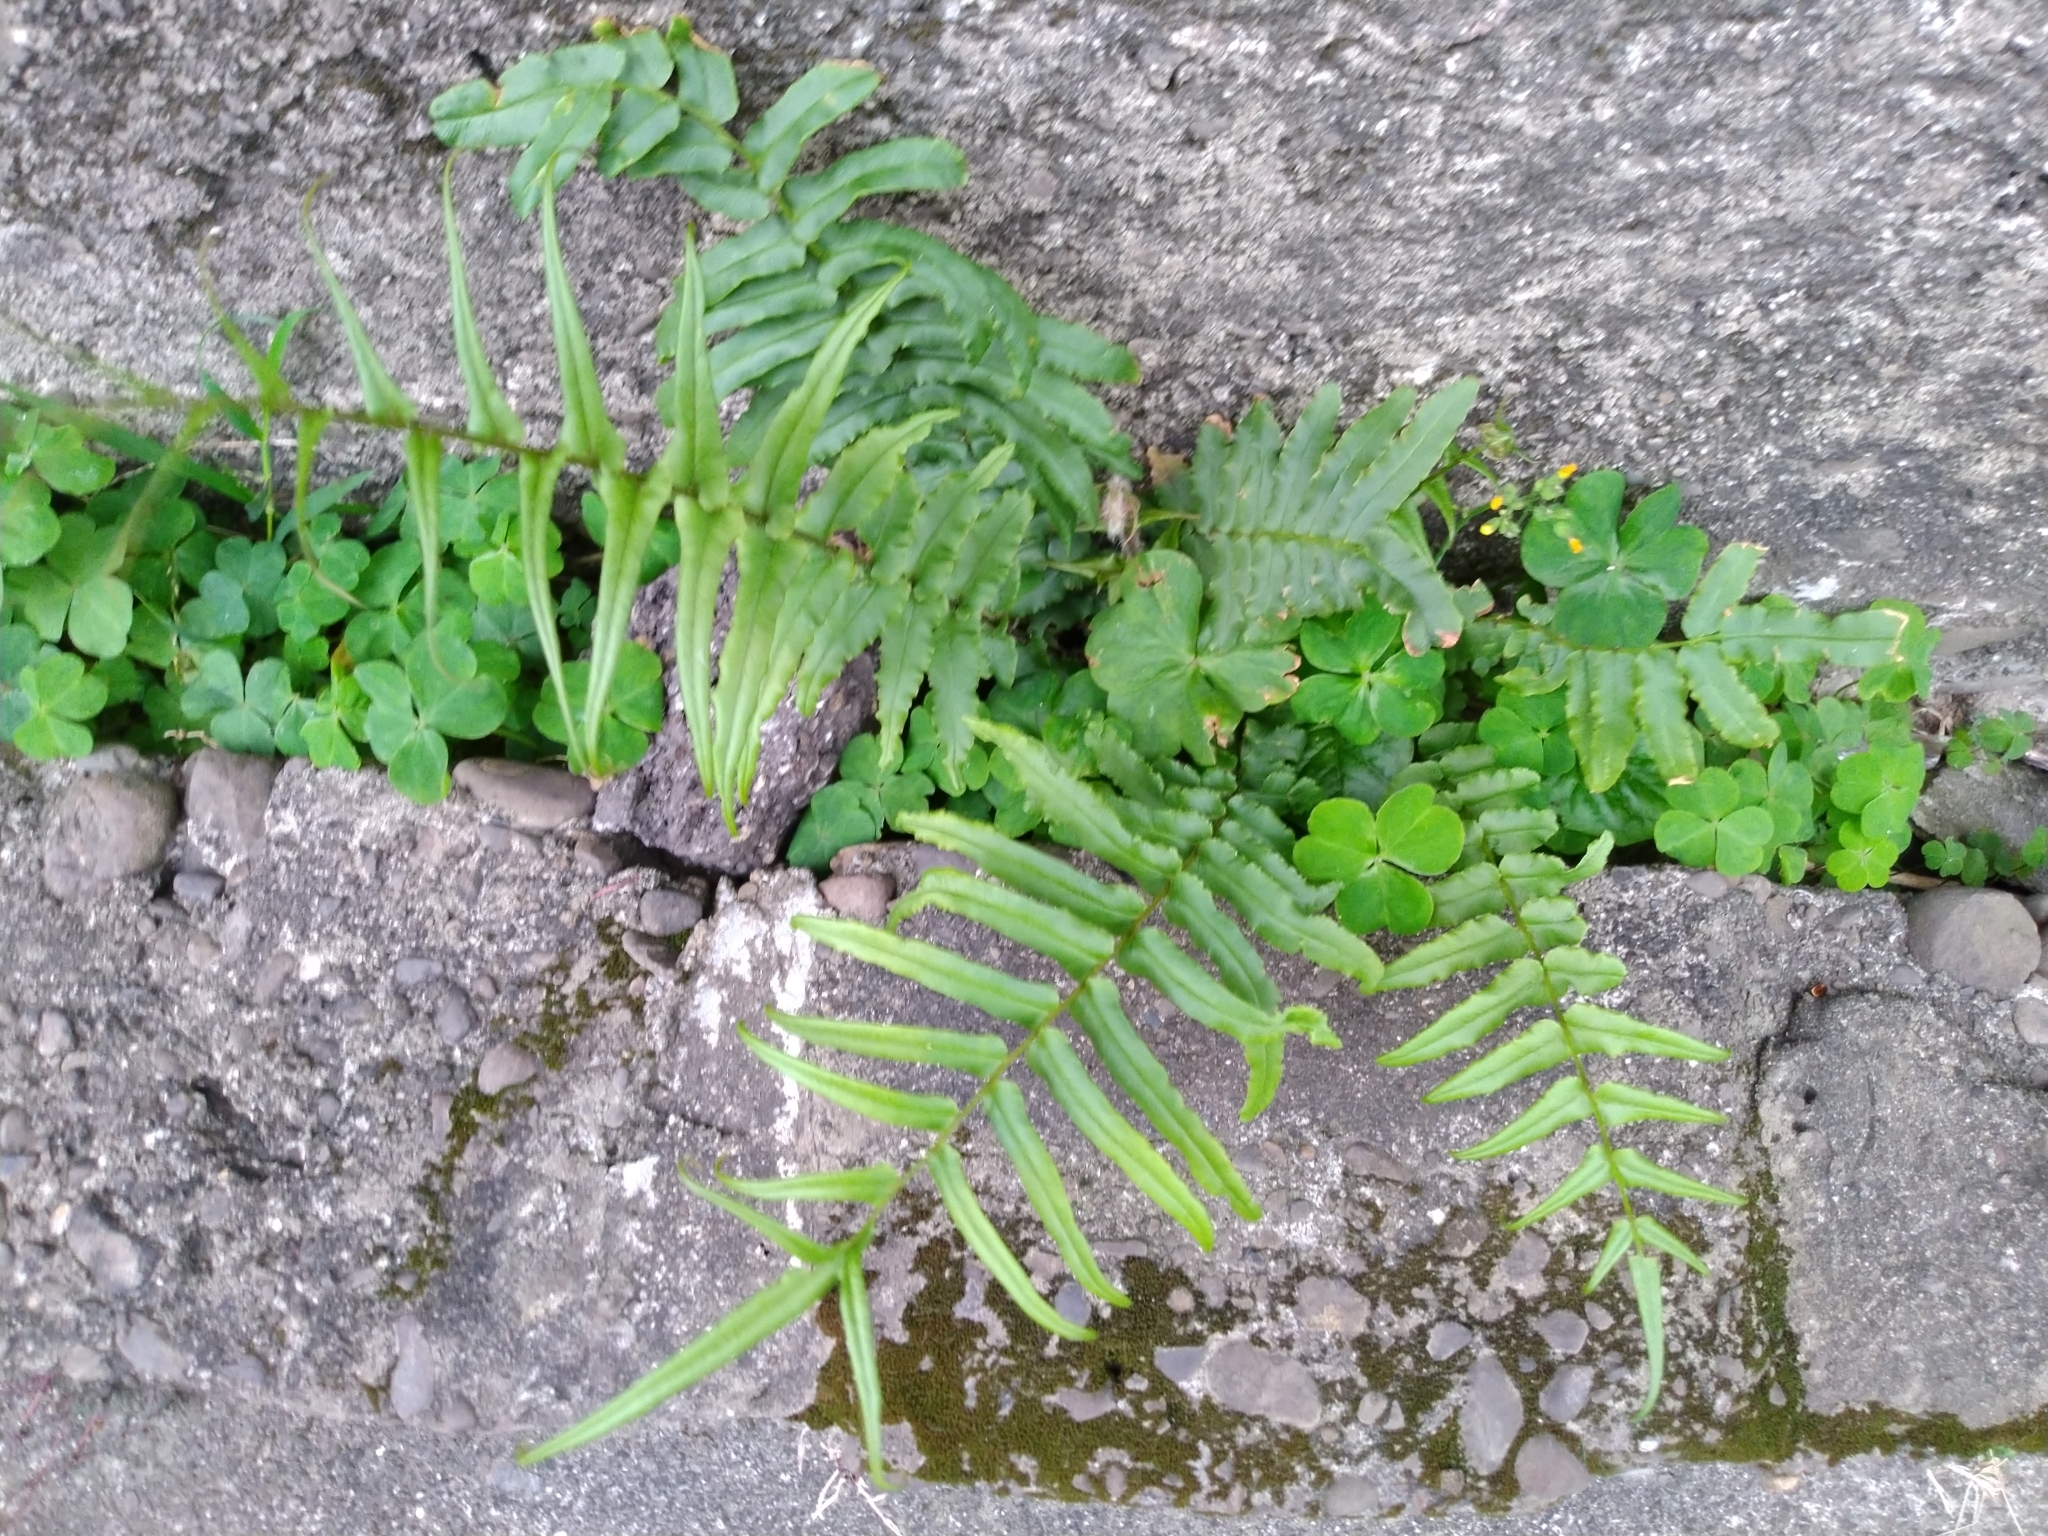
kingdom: Plantae
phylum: Tracheophyta
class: Polypodiopsida
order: Polypodiales
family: Pteridaceae
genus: Pteris
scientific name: Pteris vittata
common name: Ladder brake
